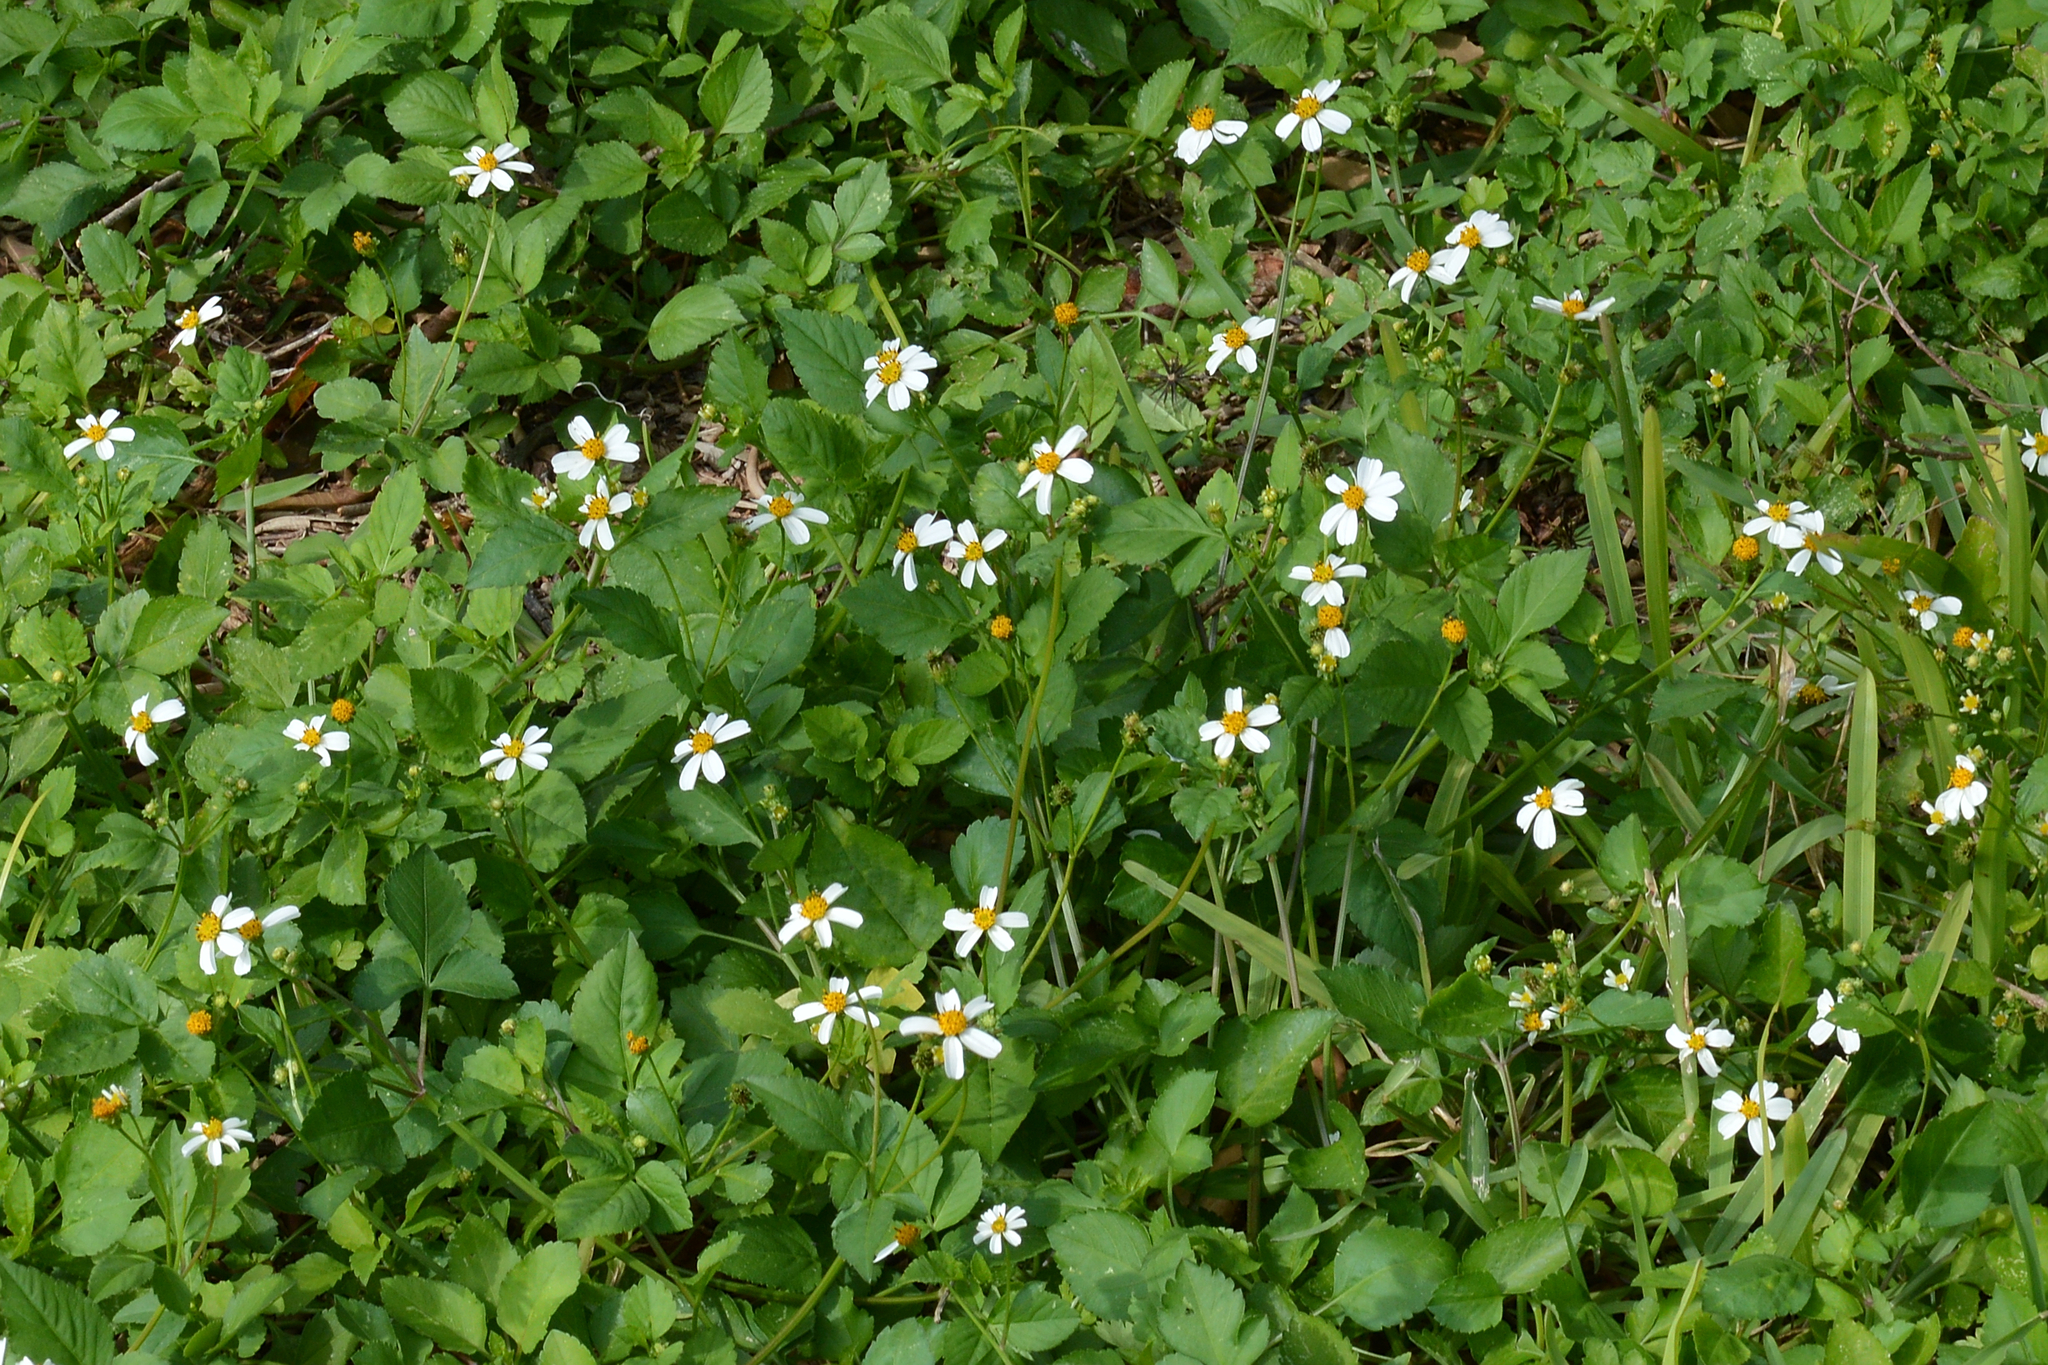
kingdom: Plantae
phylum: Tracheophyta
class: Magnoliopsida
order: Asterales
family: Asteraceae
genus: Bidens
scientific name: Bidens alba
